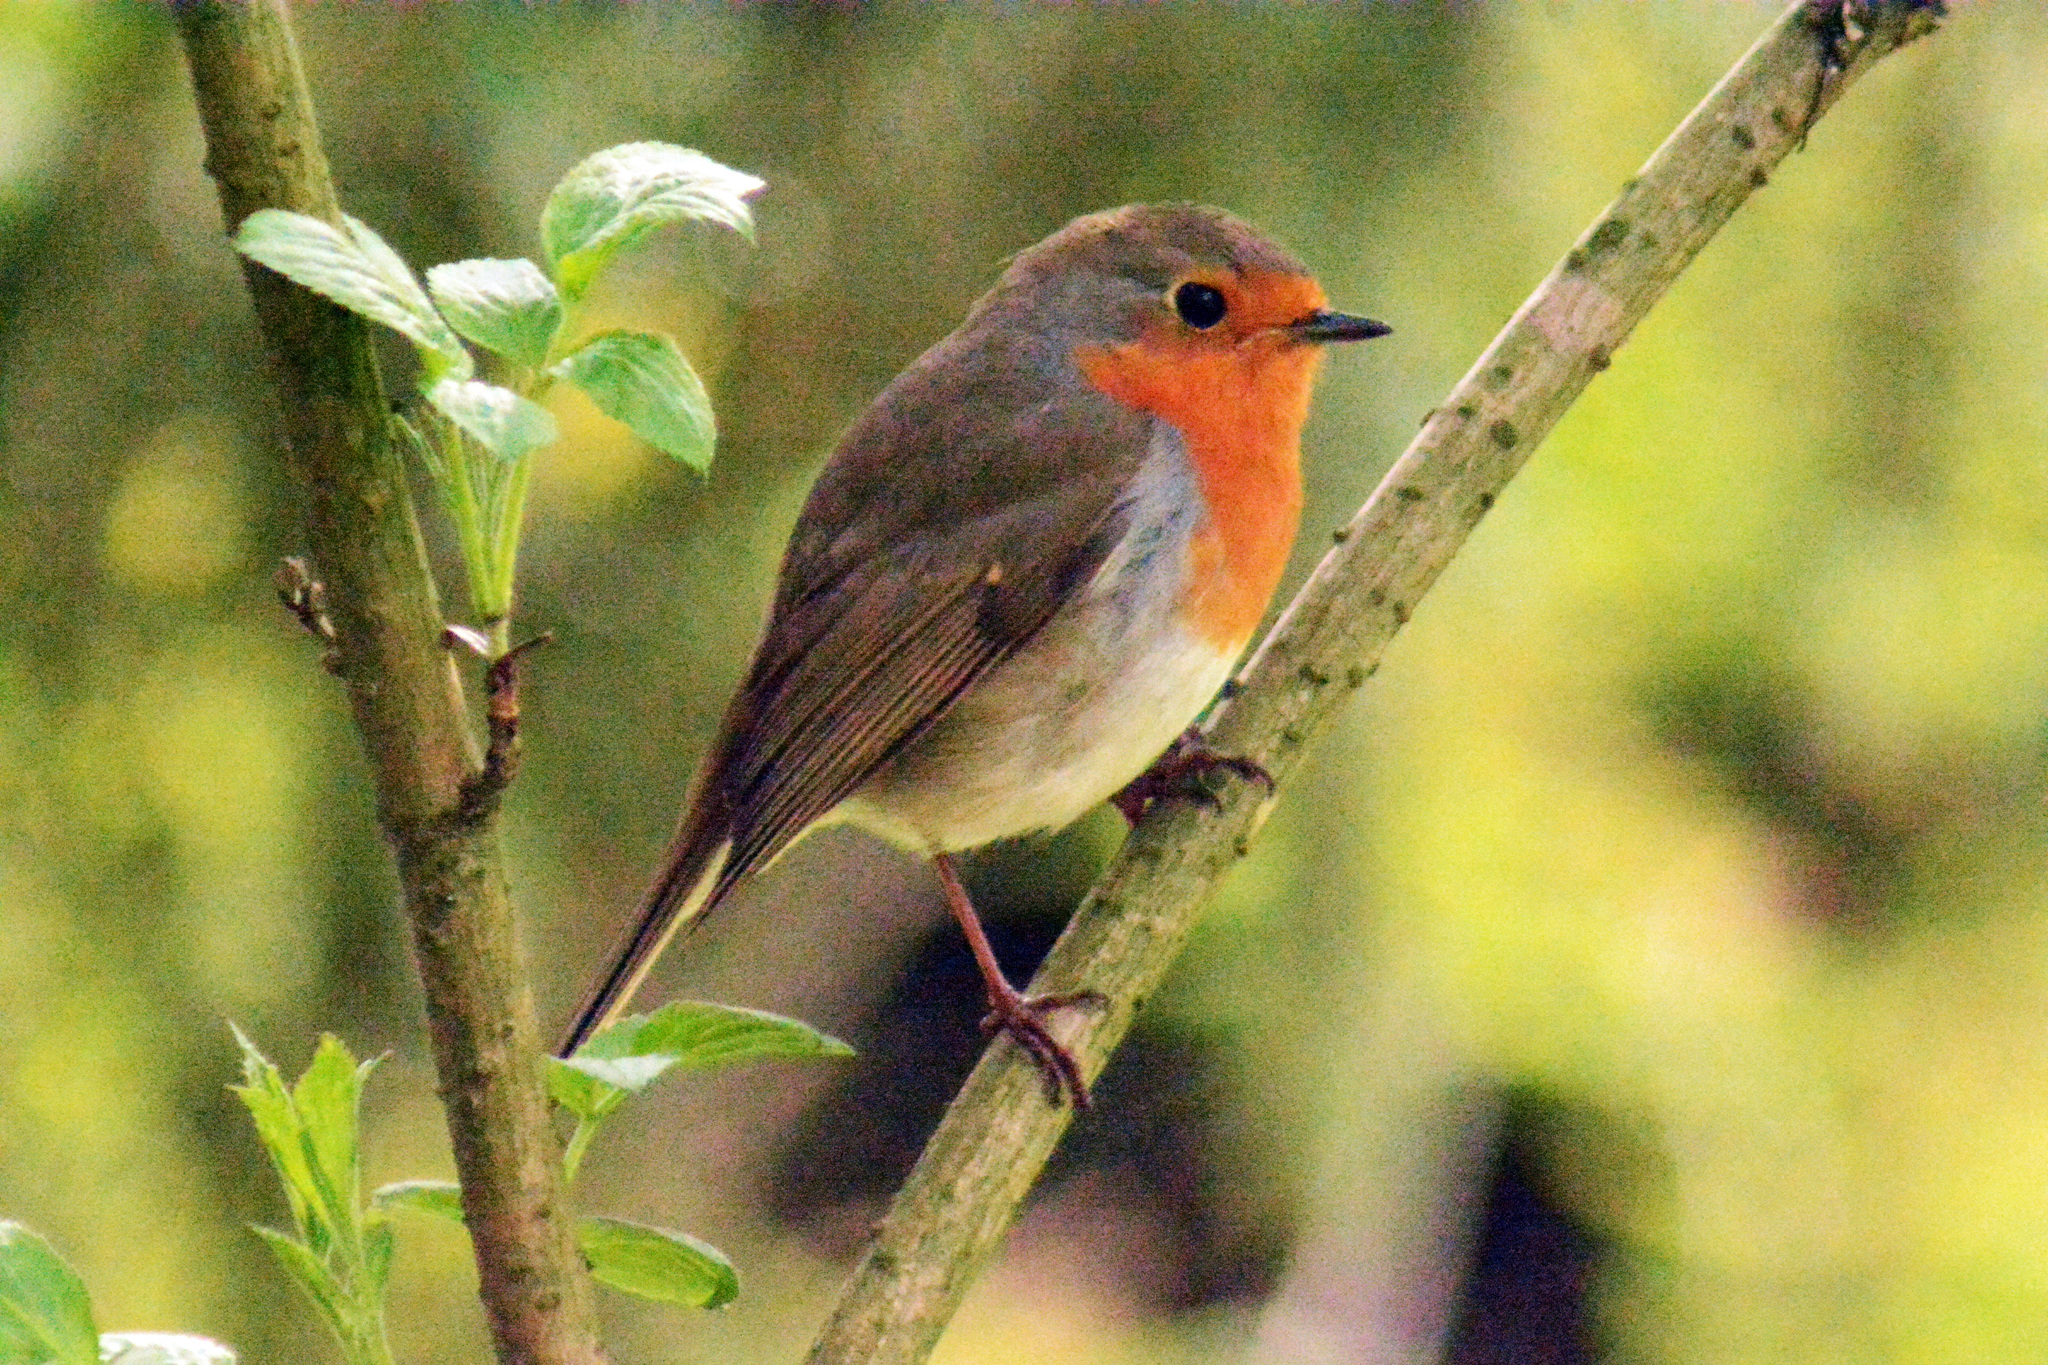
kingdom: Animalia
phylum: Chordata
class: Aves
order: Passeriformes
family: Muscicapidae
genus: Erithacus
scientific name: Erithacus rubecula
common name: European robin
